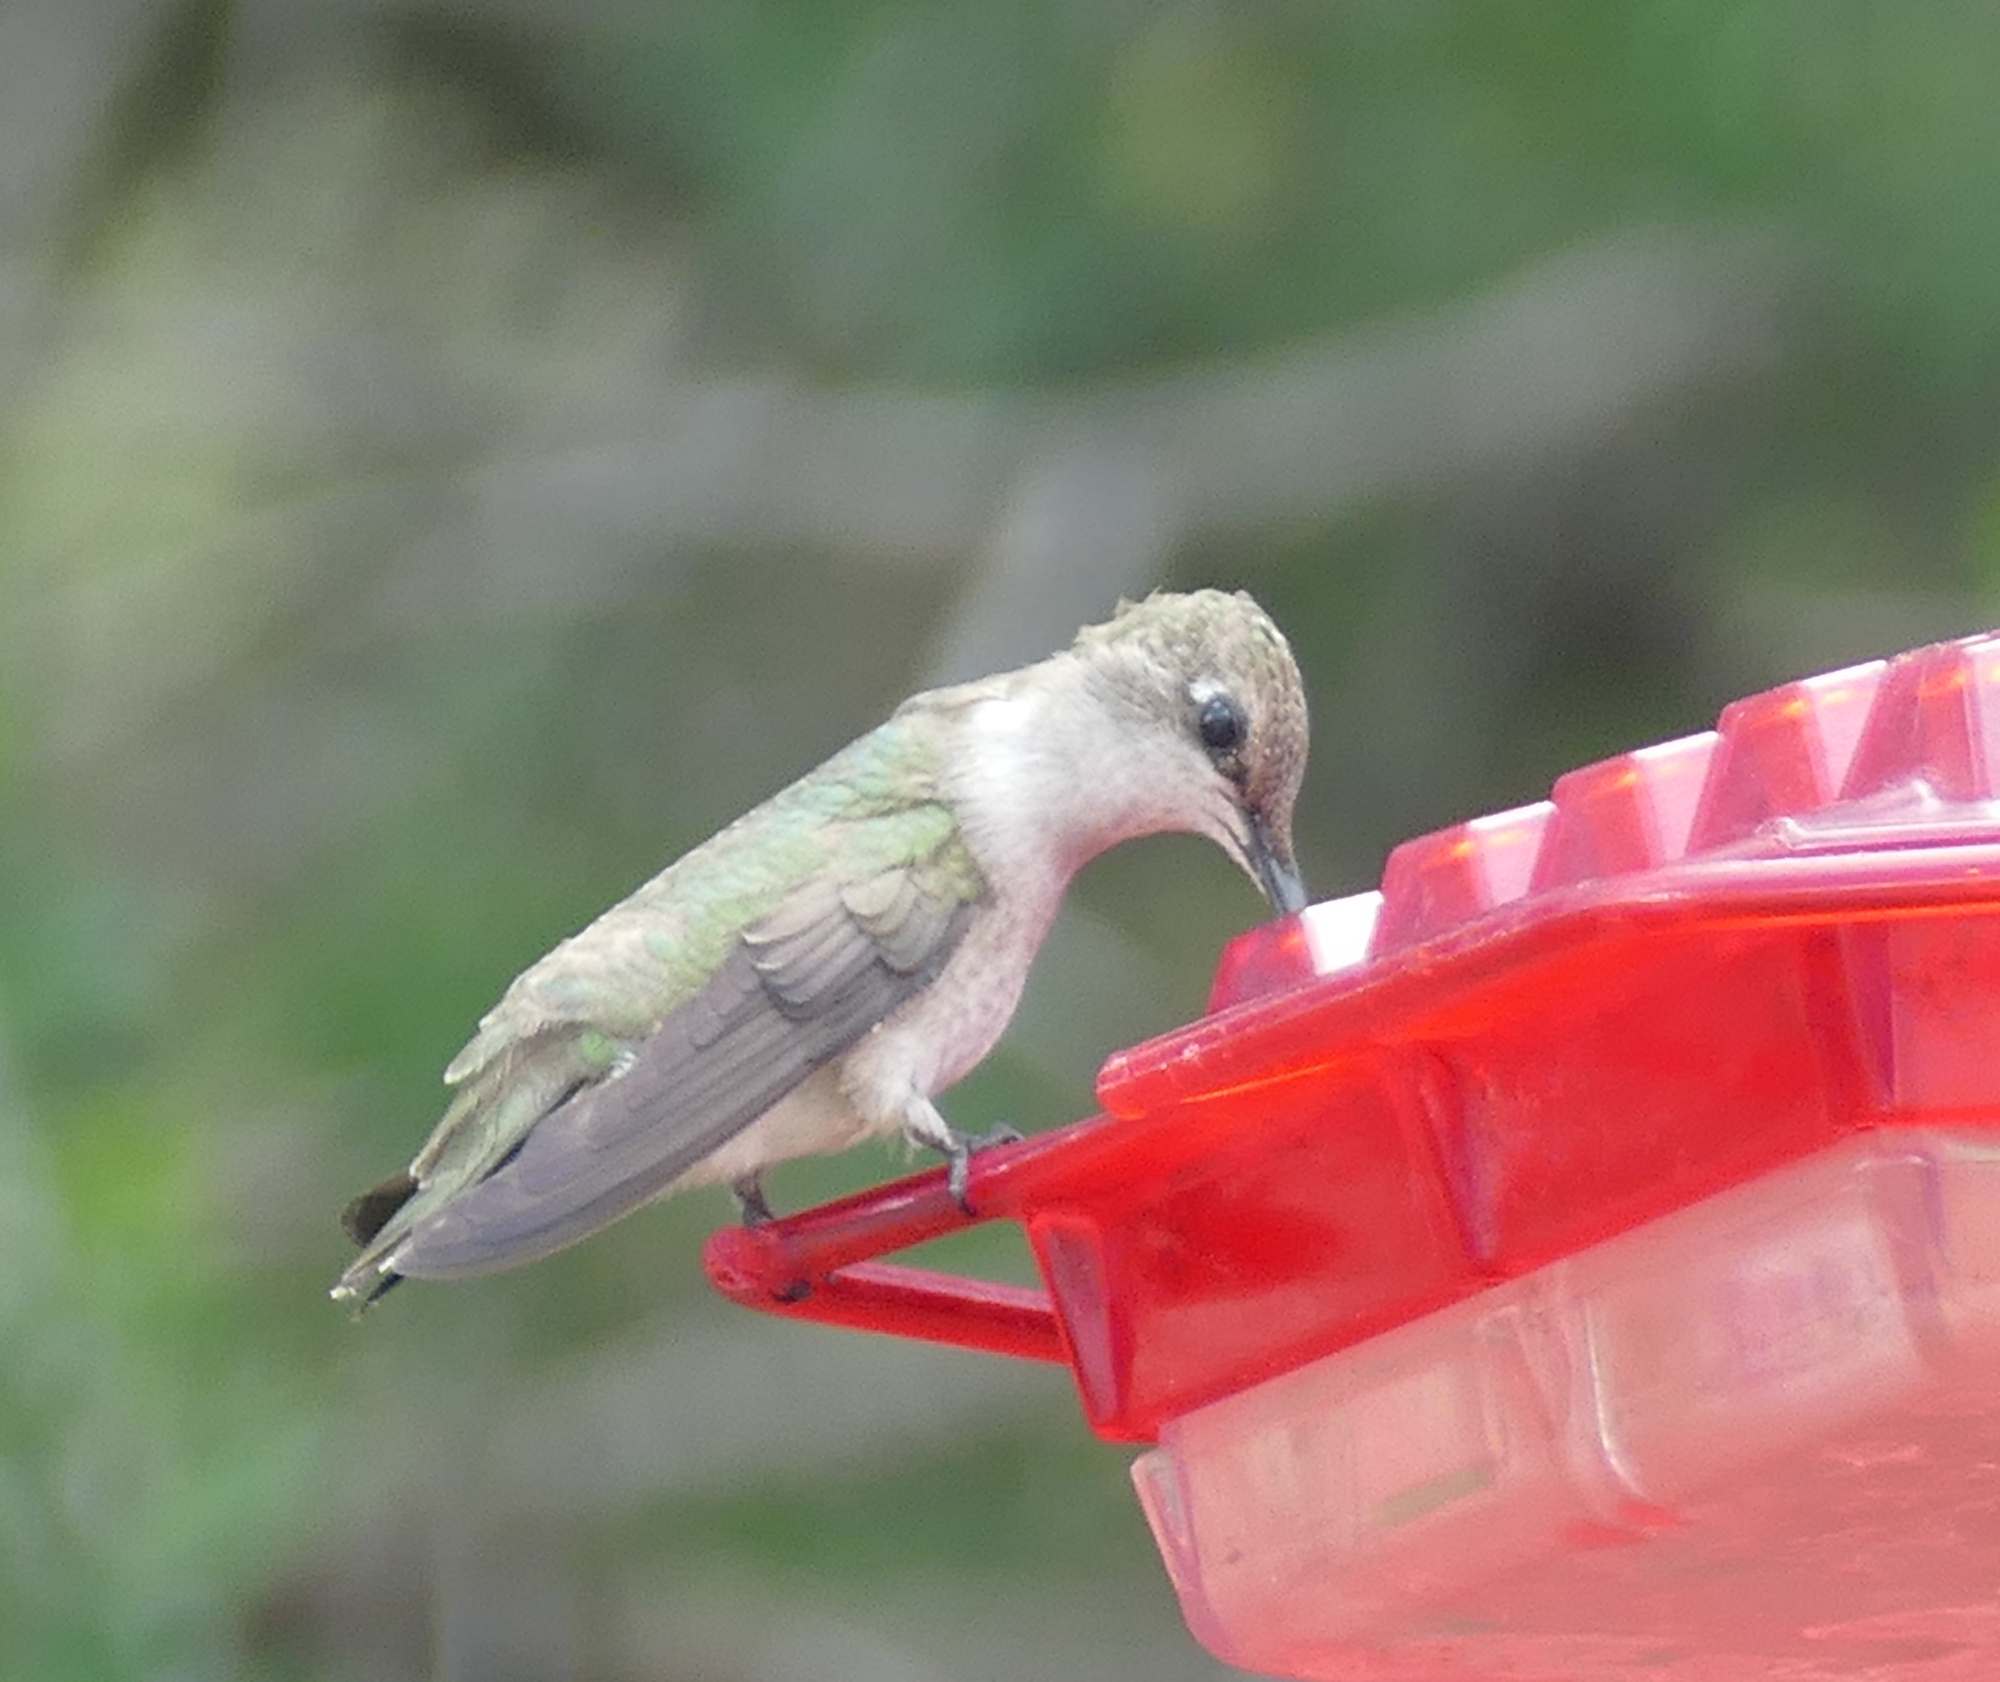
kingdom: Animalia
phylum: Chordata
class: Aves
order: Apodiformes
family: Trochilidae
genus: Archilochus
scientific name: Archilochus alexandri
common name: Black-chinned hummingbird
